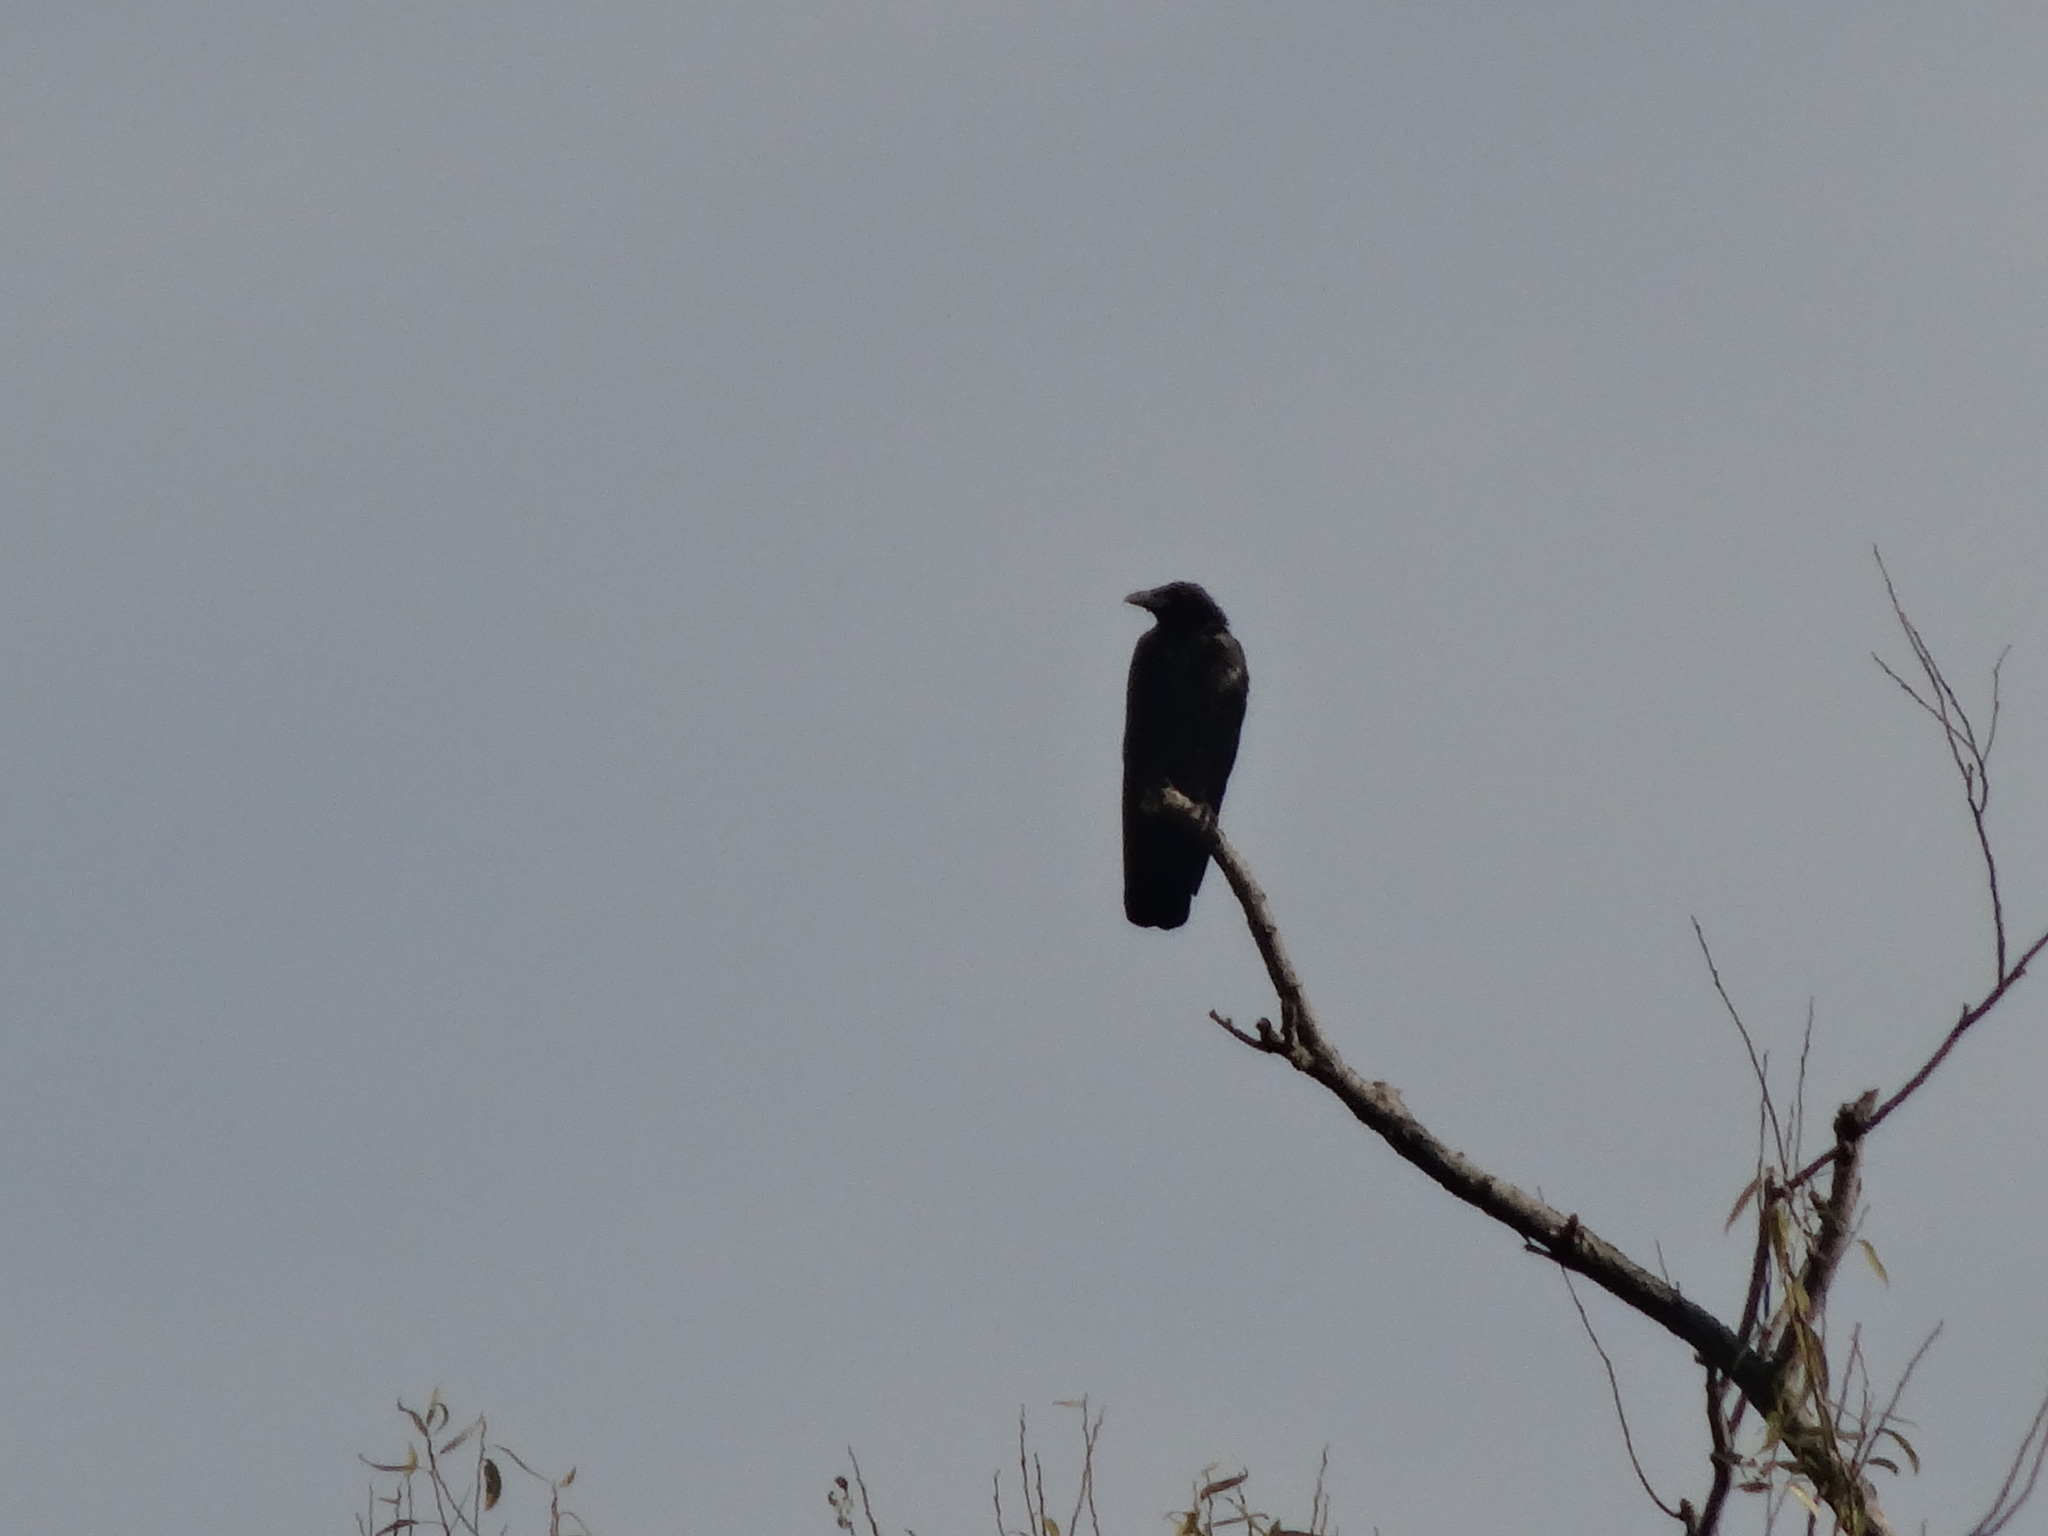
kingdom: Animalia
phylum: Chordata
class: Aves
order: Passeriformes
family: Corvidae
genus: Corvus
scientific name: Corvus corone
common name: Carrion crow
